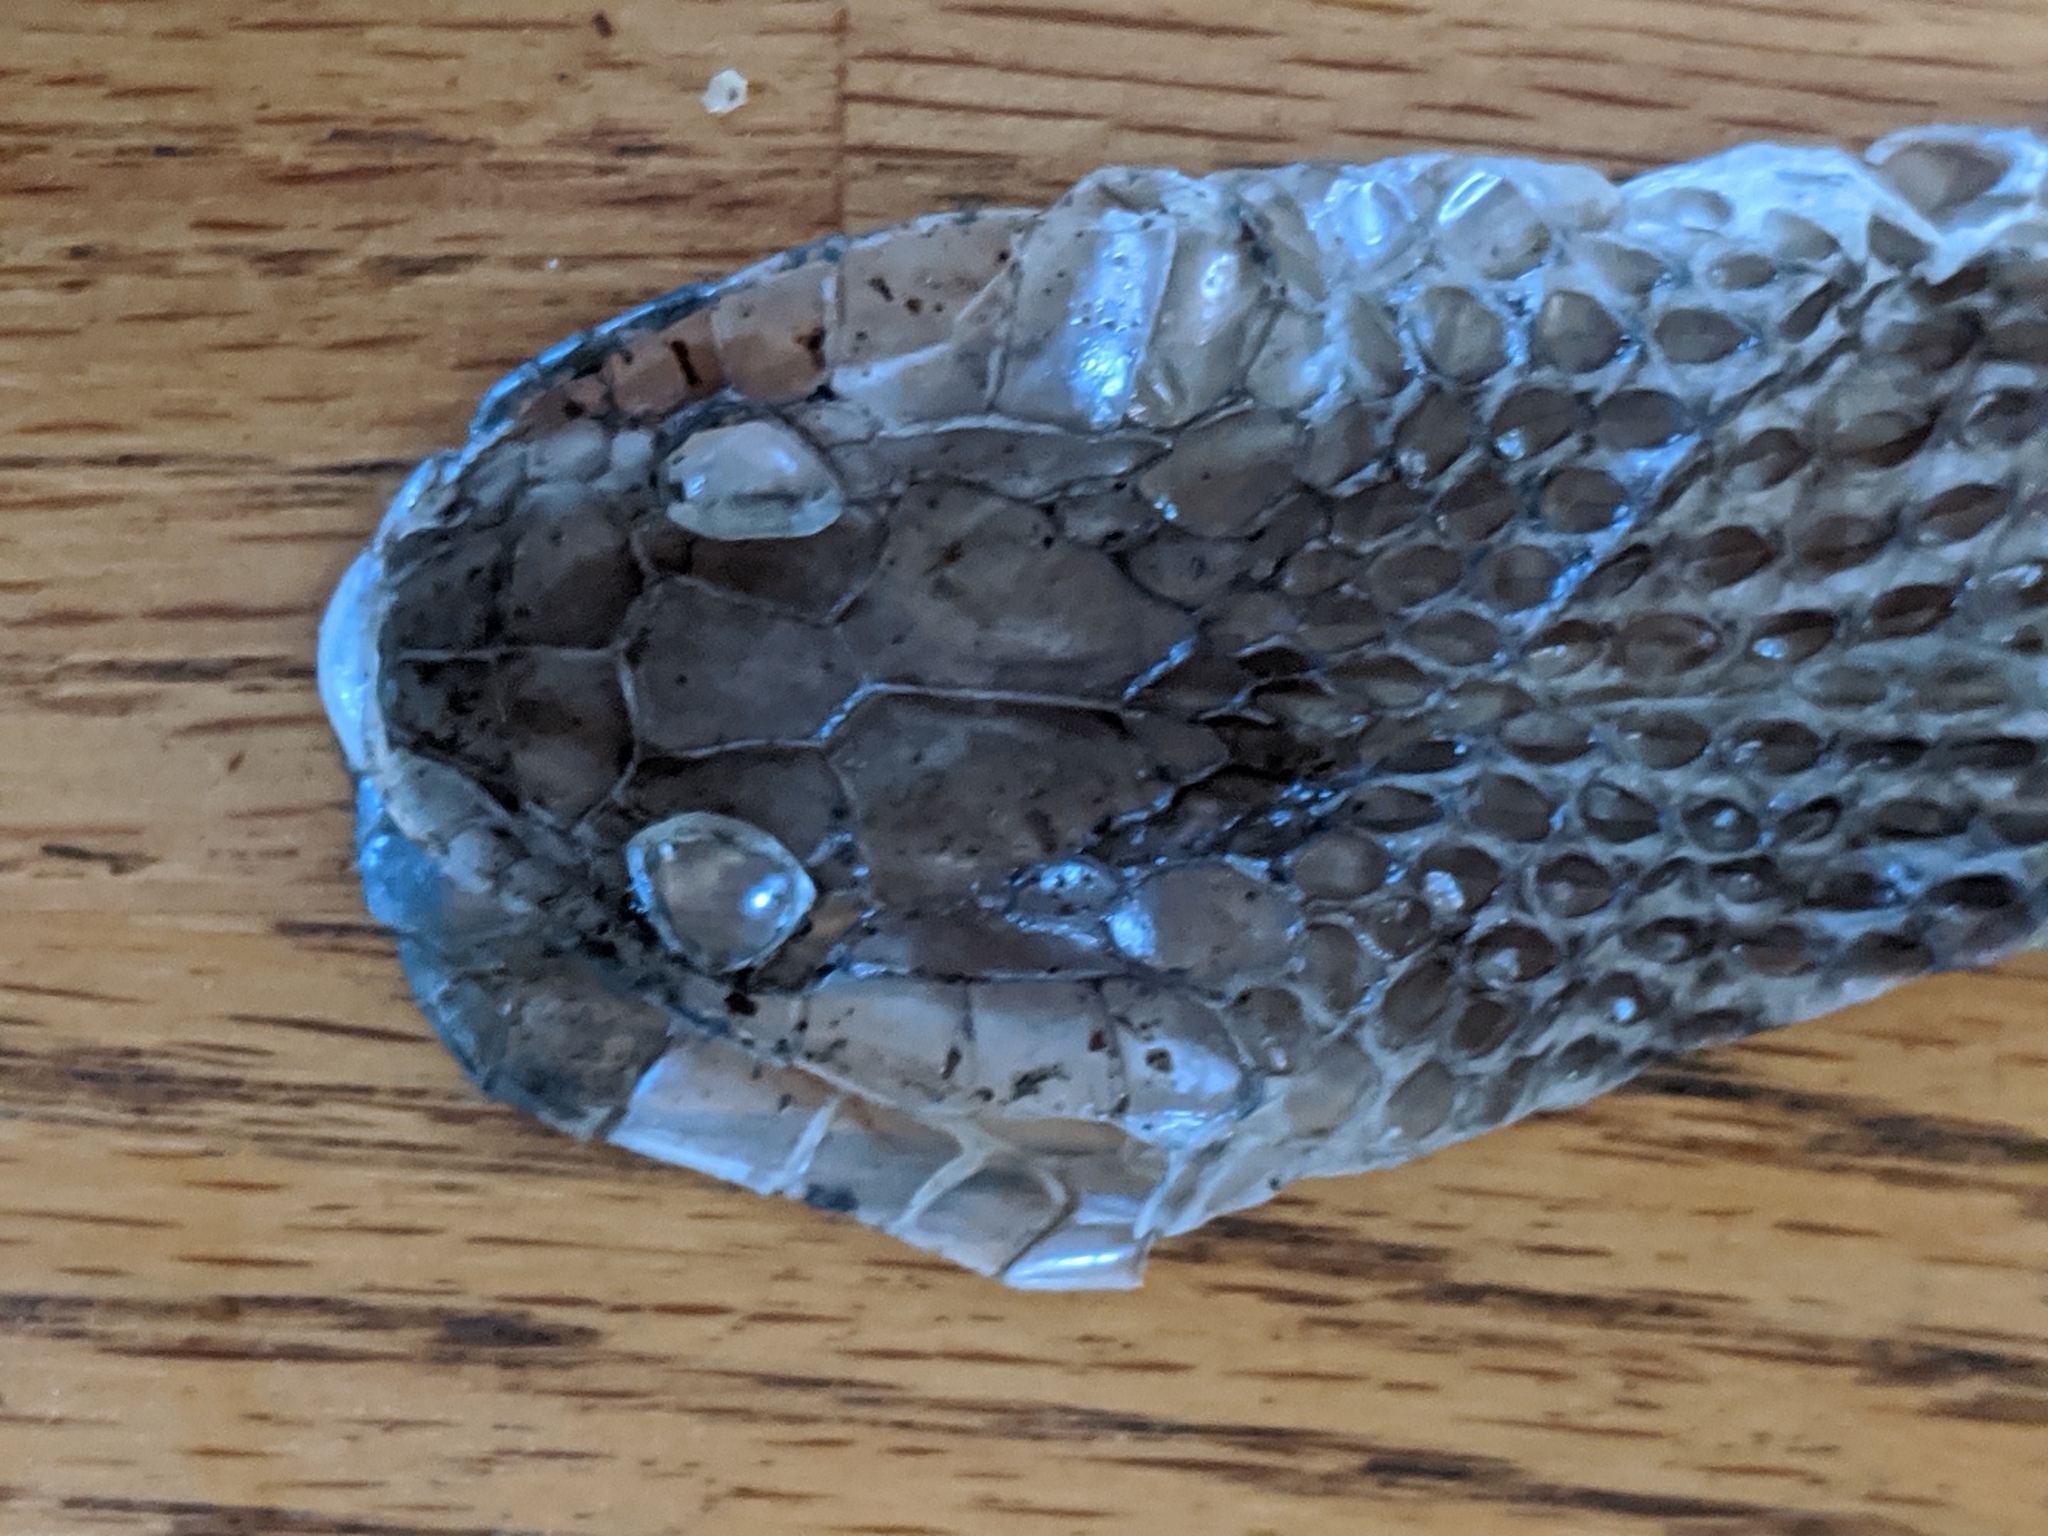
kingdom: Animalia
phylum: Chordata
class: Squamata
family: Colubridae
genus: Thamnophis
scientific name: Thamnophis ordinoides
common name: Northwestern garter snake
